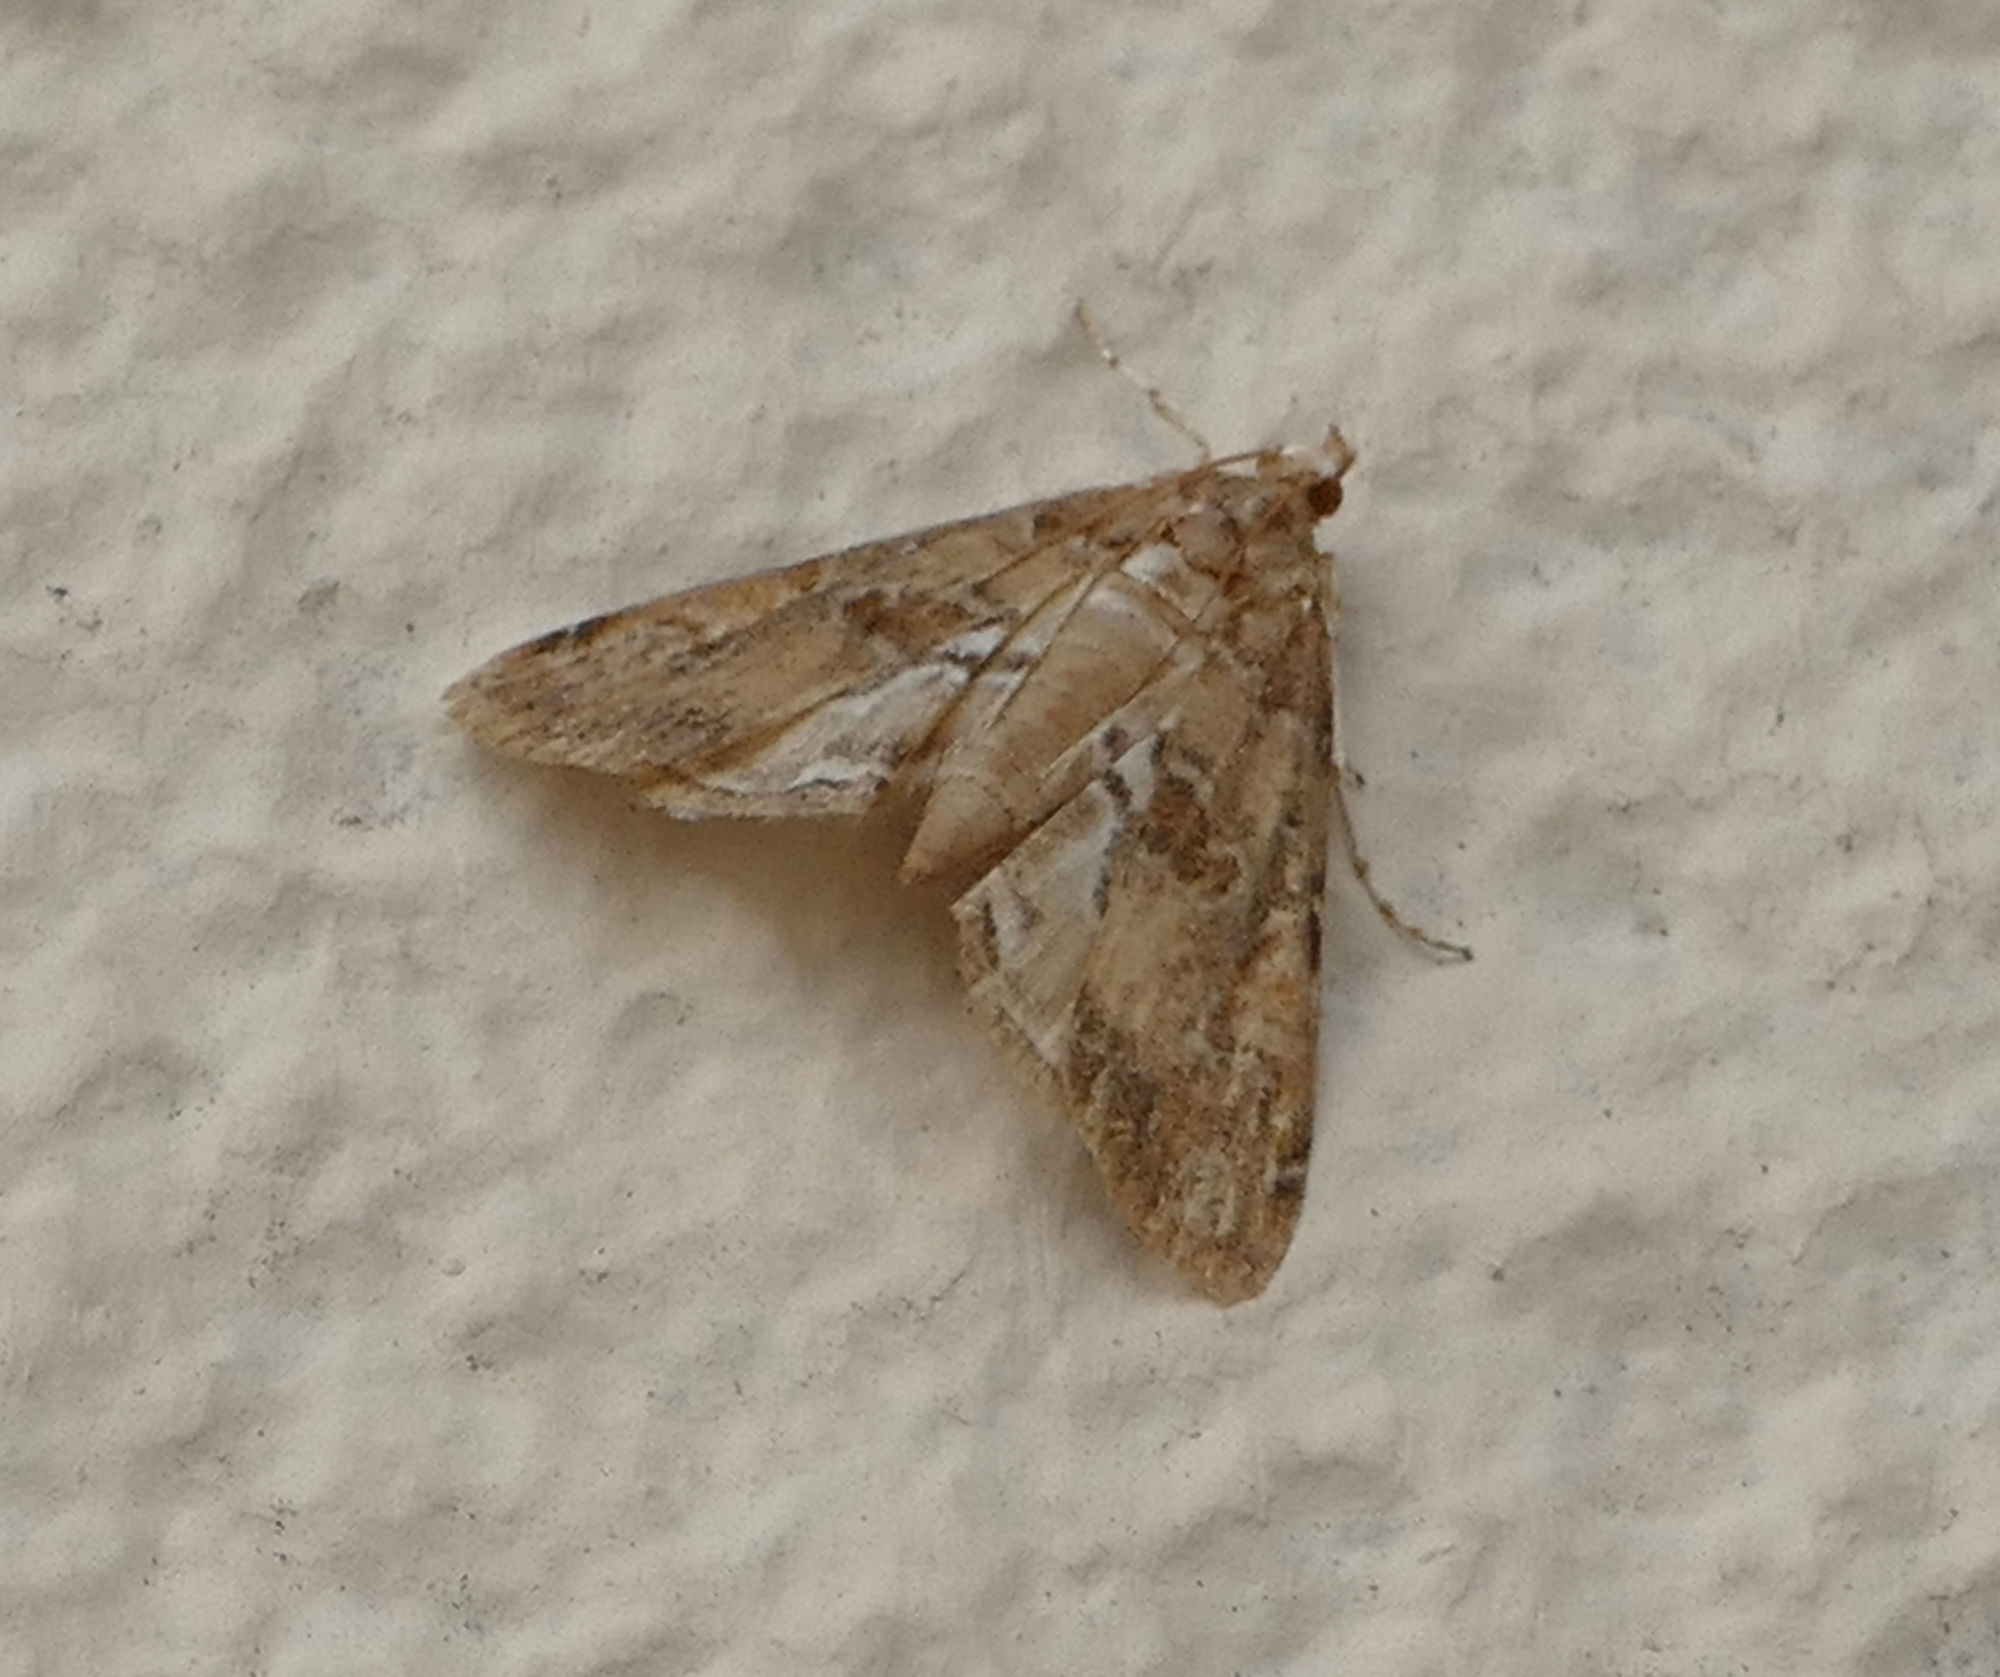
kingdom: Animalia
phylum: Arthropoda
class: Insecta
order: Lepidoptera
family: Crambidae
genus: Elophila
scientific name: Elophila gyralis
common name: Waterlily borer moth
